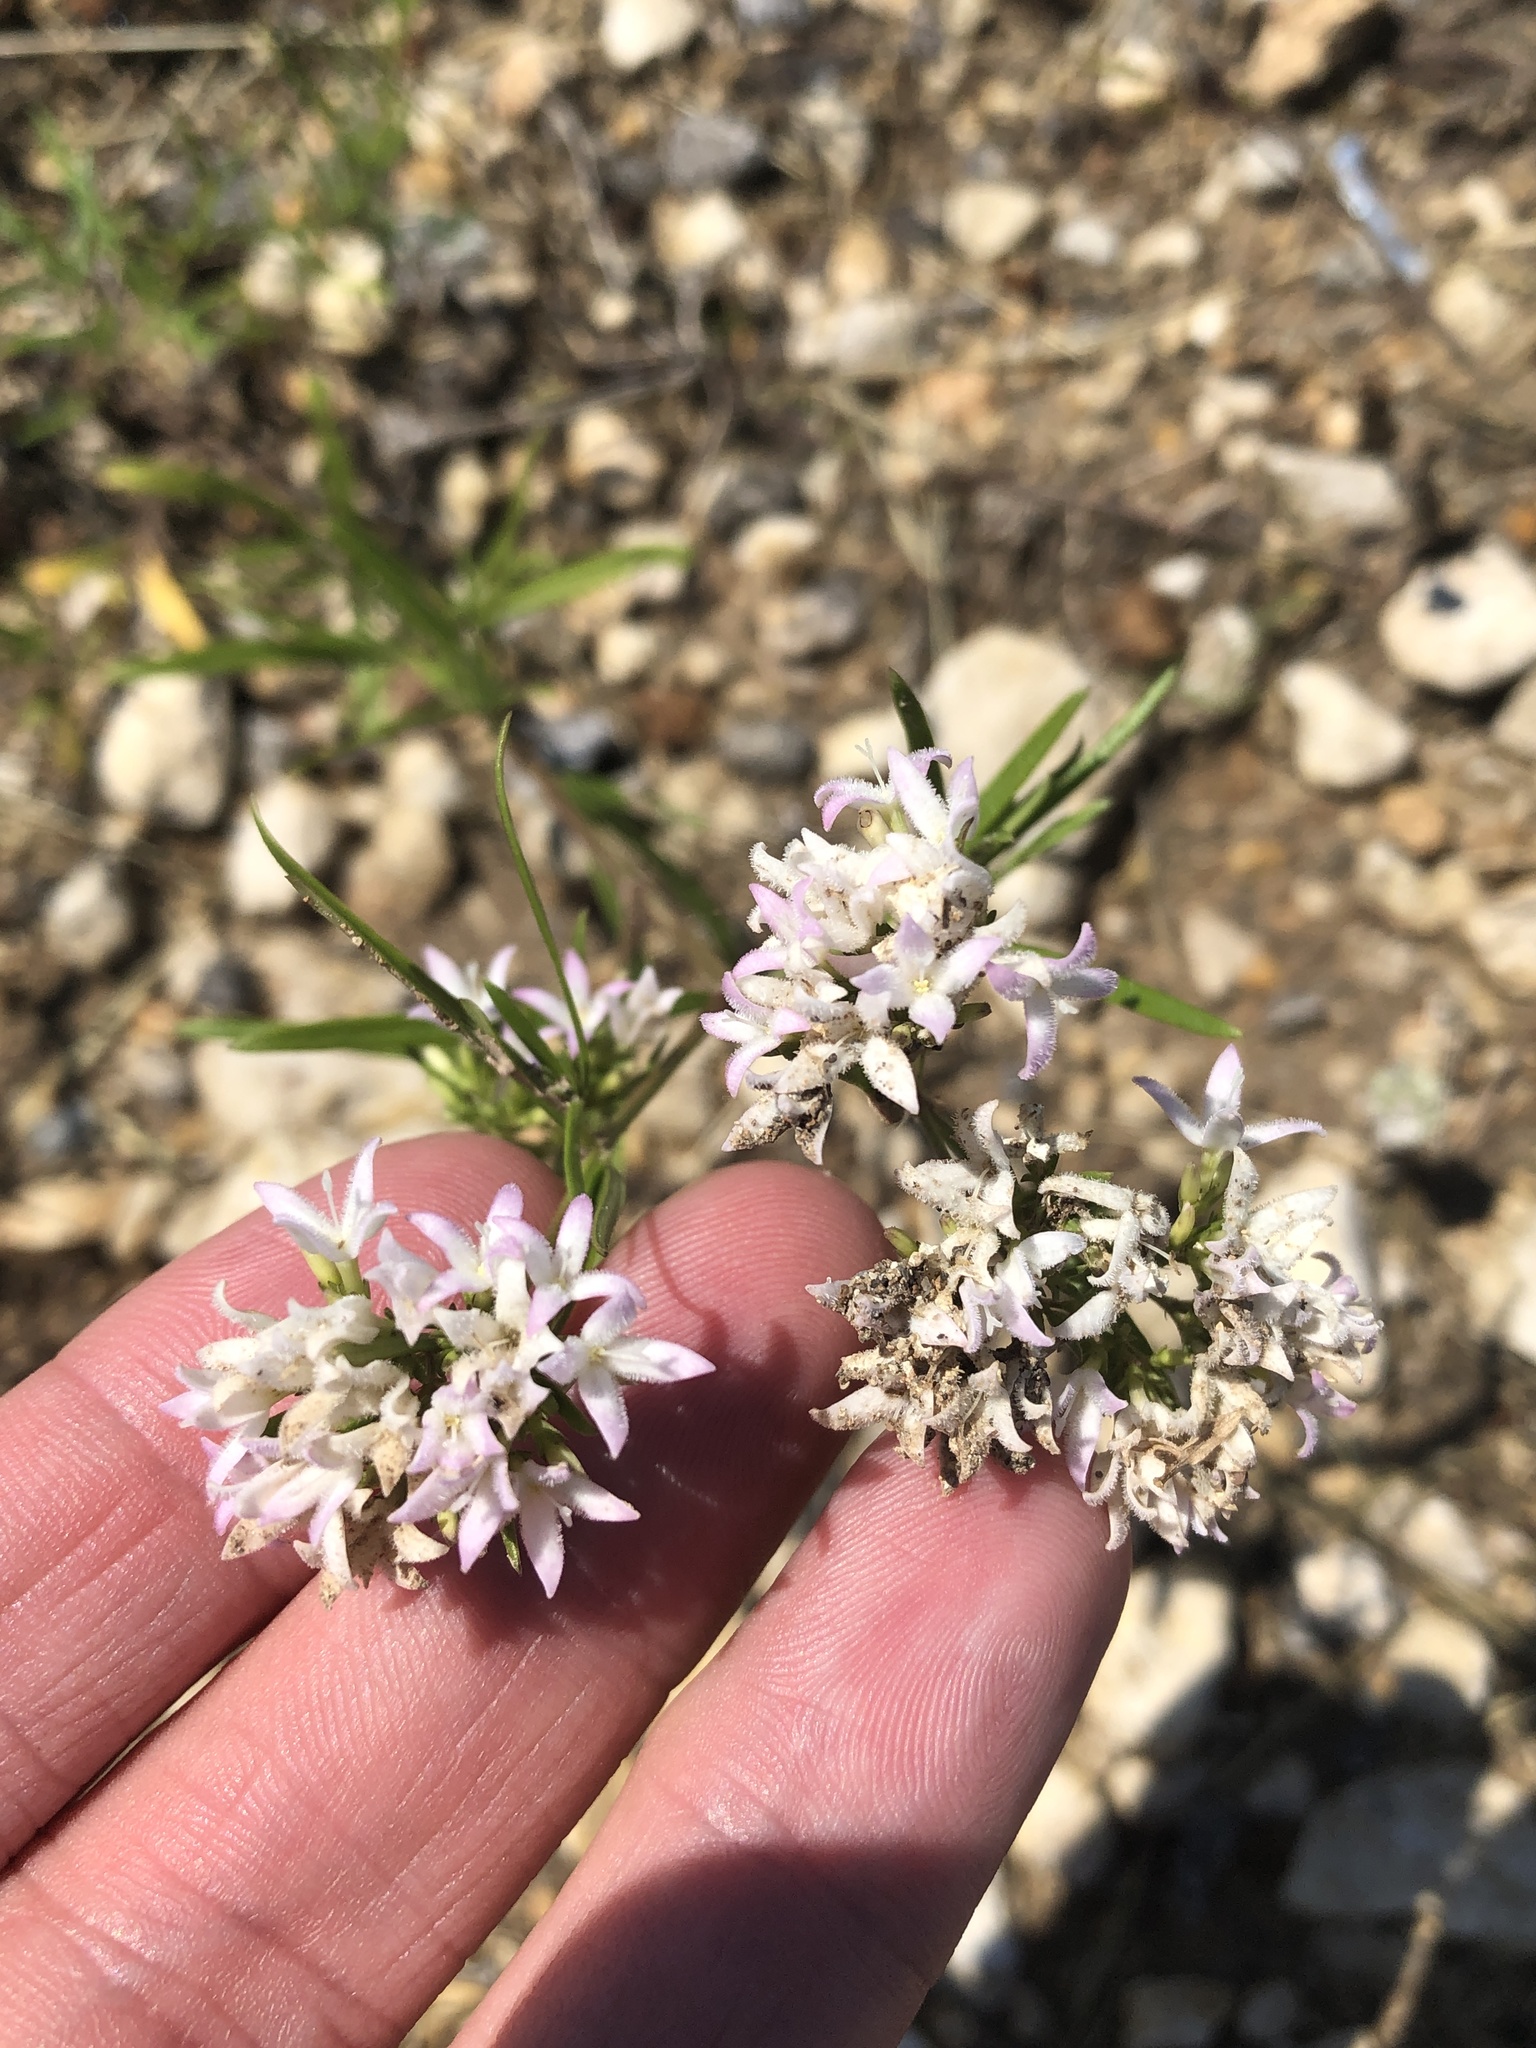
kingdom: Plantae
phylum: Tracheophyta
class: Magnoliopsida
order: Gentianales
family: Rubiaceae
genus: Stenaria
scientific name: Stenaria nigricans
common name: Diamondflowers
